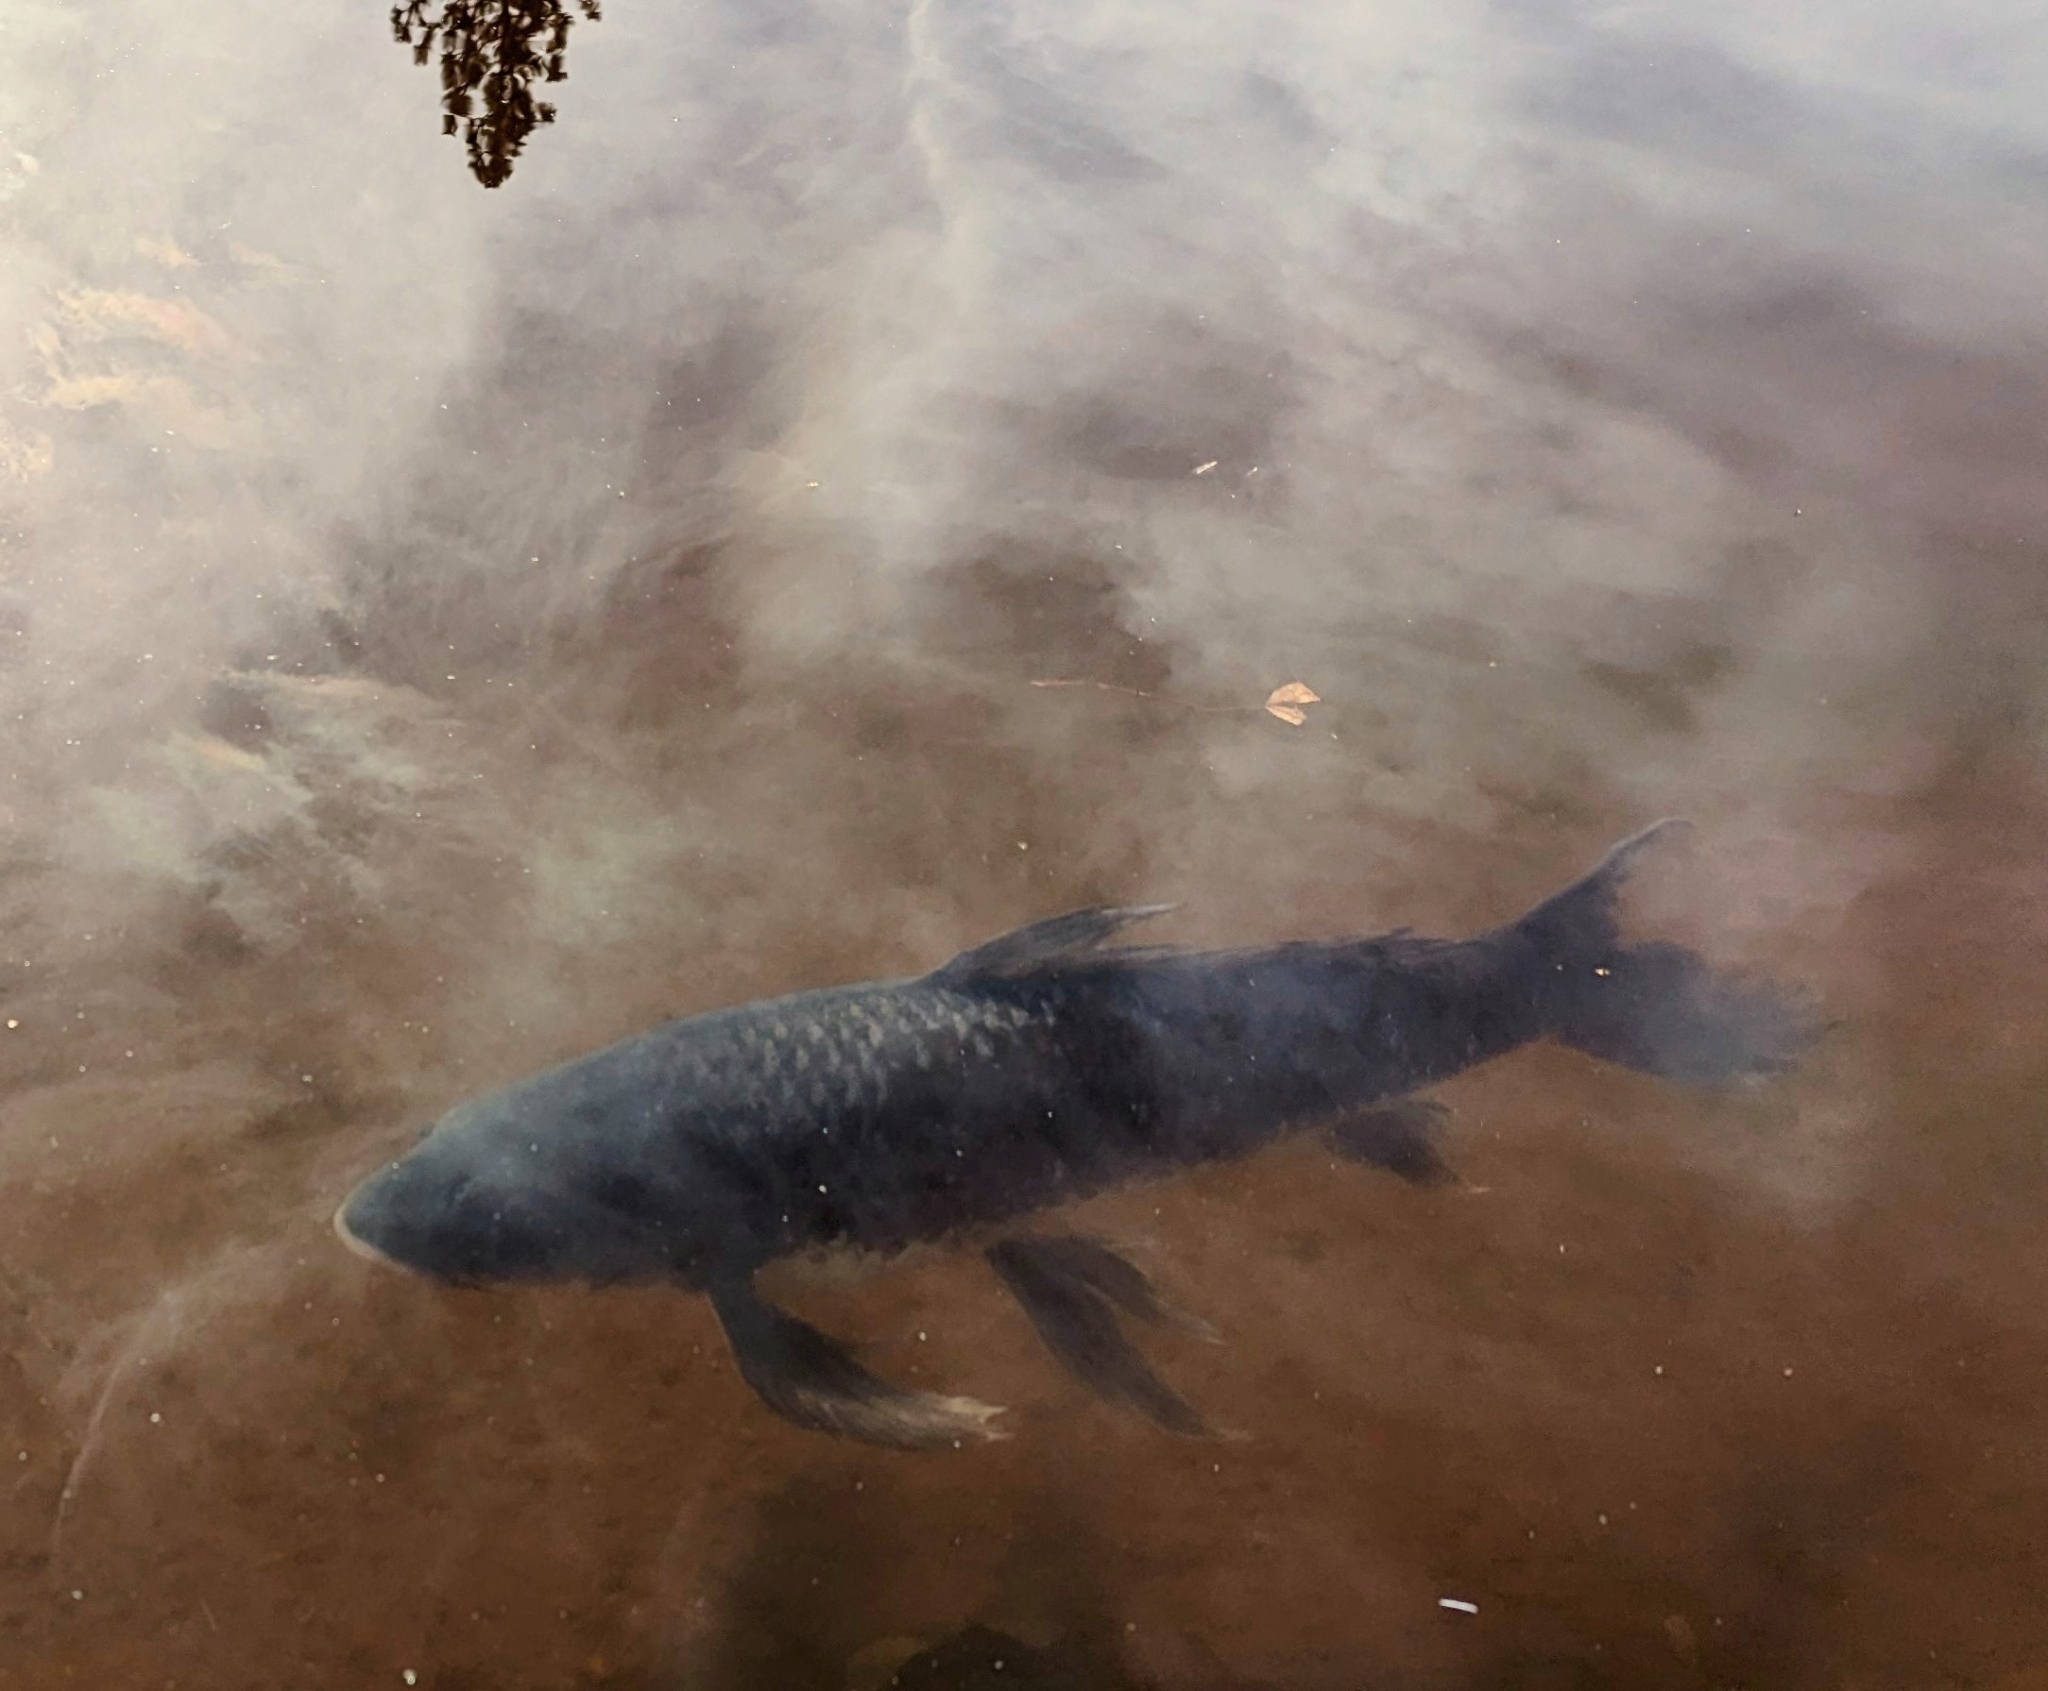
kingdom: Animalia
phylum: Chordata
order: Cypriniformes
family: Cyprinidae
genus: Cyprinus
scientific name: Cyprinus carpio
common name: Common carp
